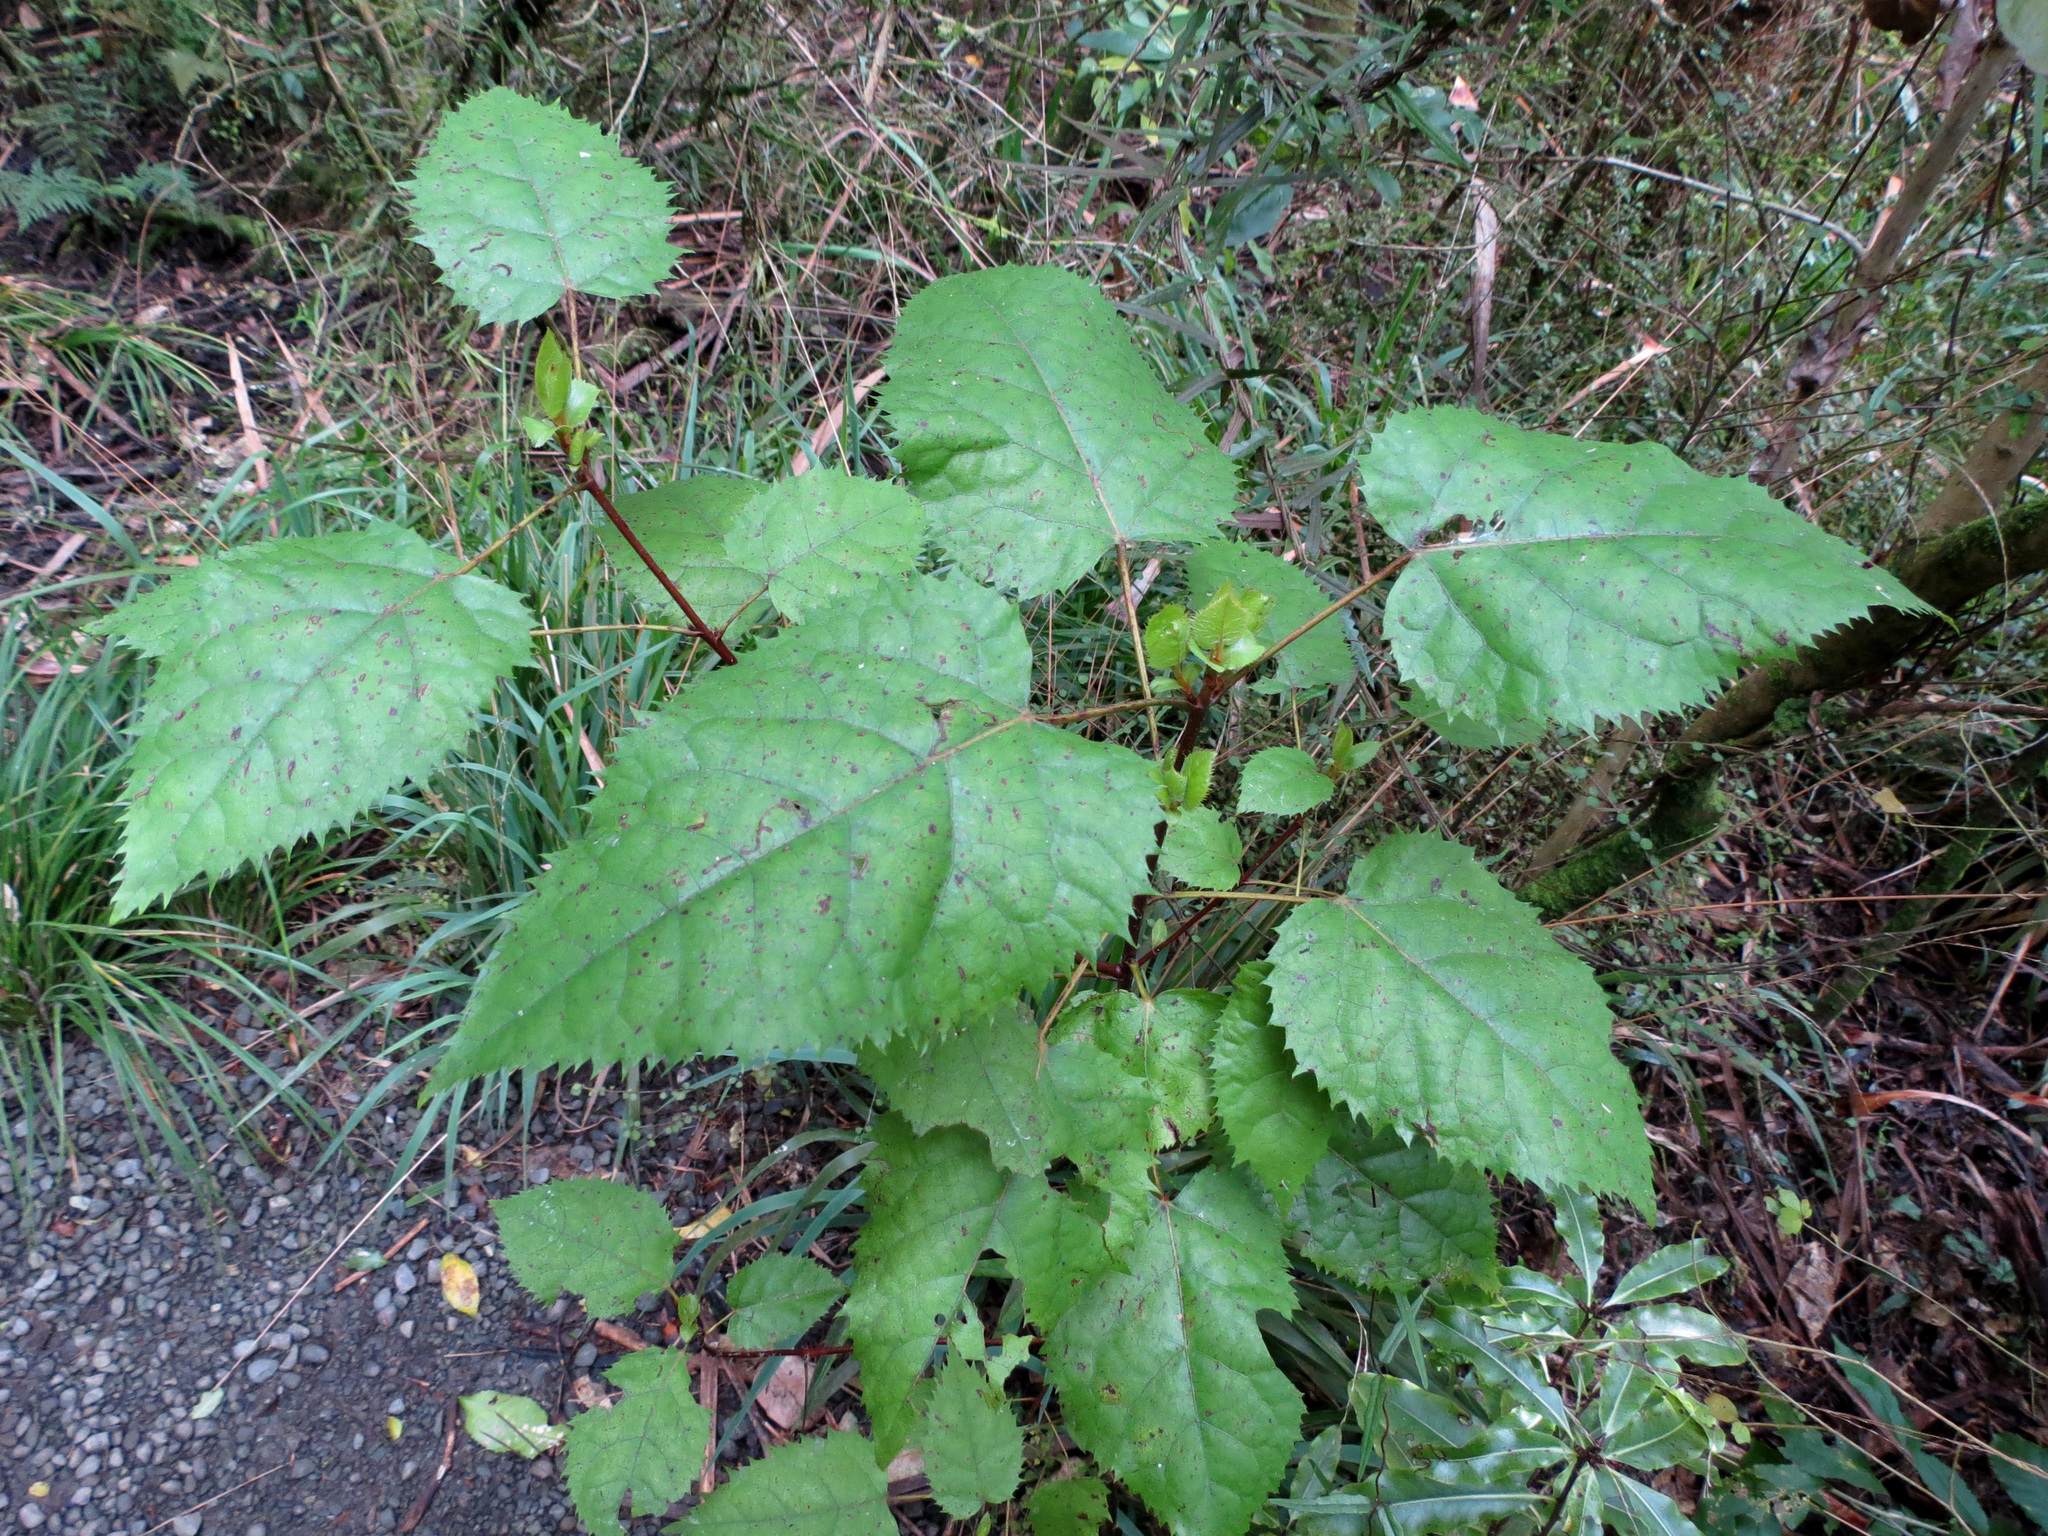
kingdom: Plantae
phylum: Tracheophyta
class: Magnoliopsida
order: Oxalidales
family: Elaeocarpaceae
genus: Aristotelia
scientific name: Aristotelia serrata
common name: New zealand wineberry
